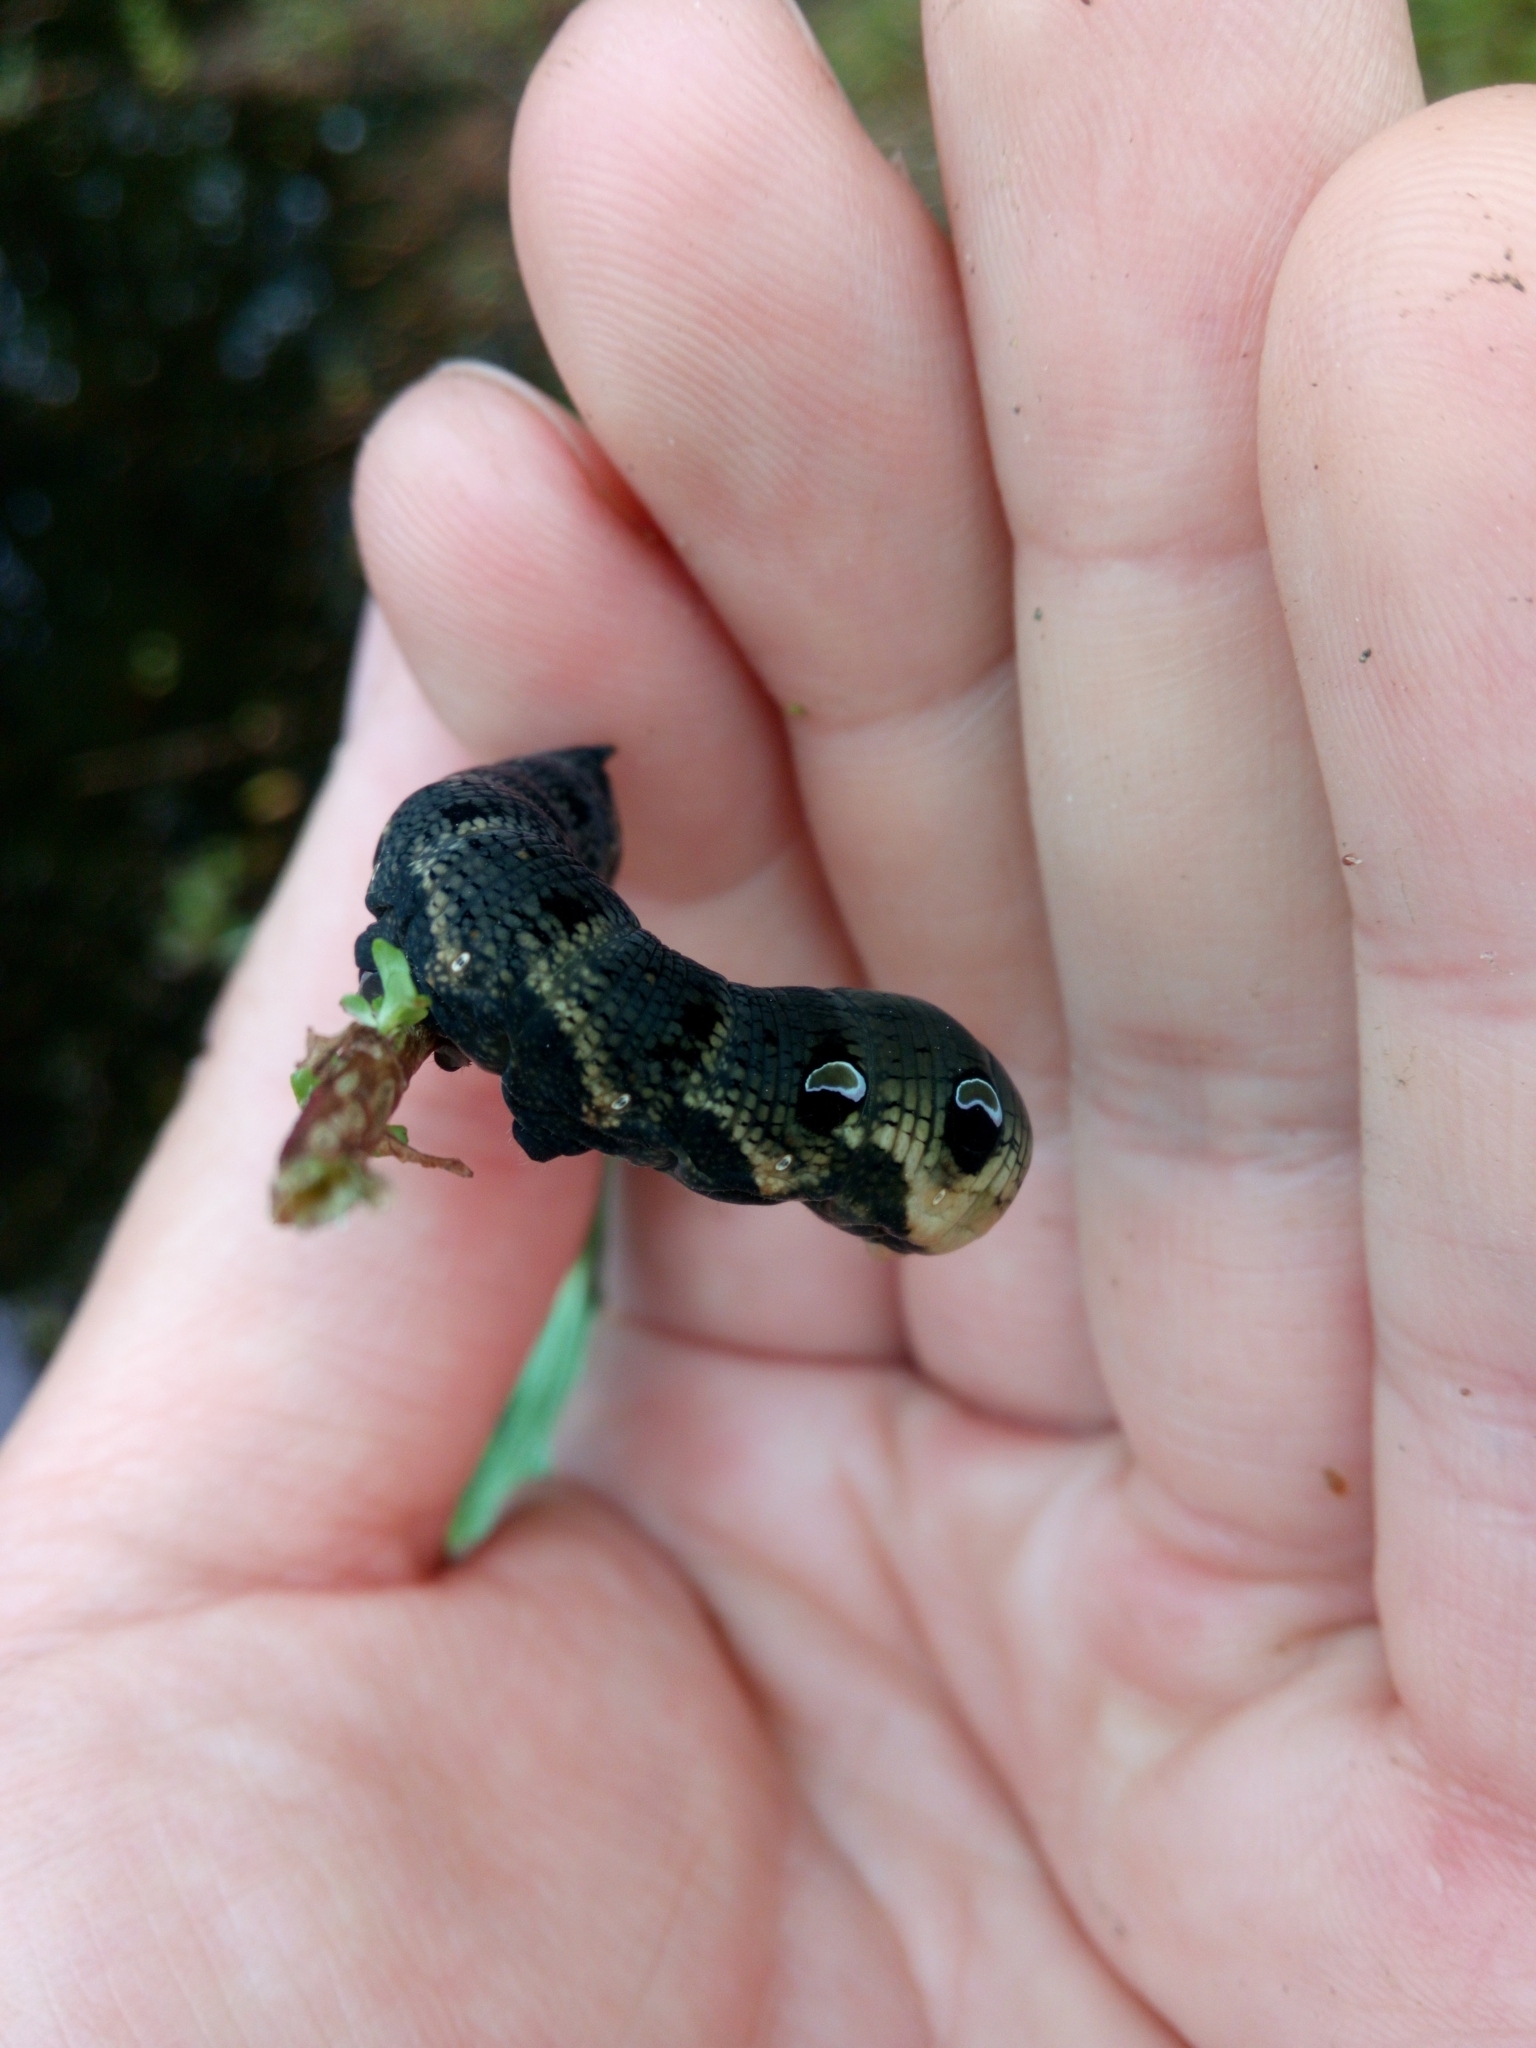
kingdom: Animalia
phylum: Arthropoda
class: Insecta
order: Lepidoptera
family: Sphingidae
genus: Deilephila
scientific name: Deilephila elpenor
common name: Elephant hawk-moth
